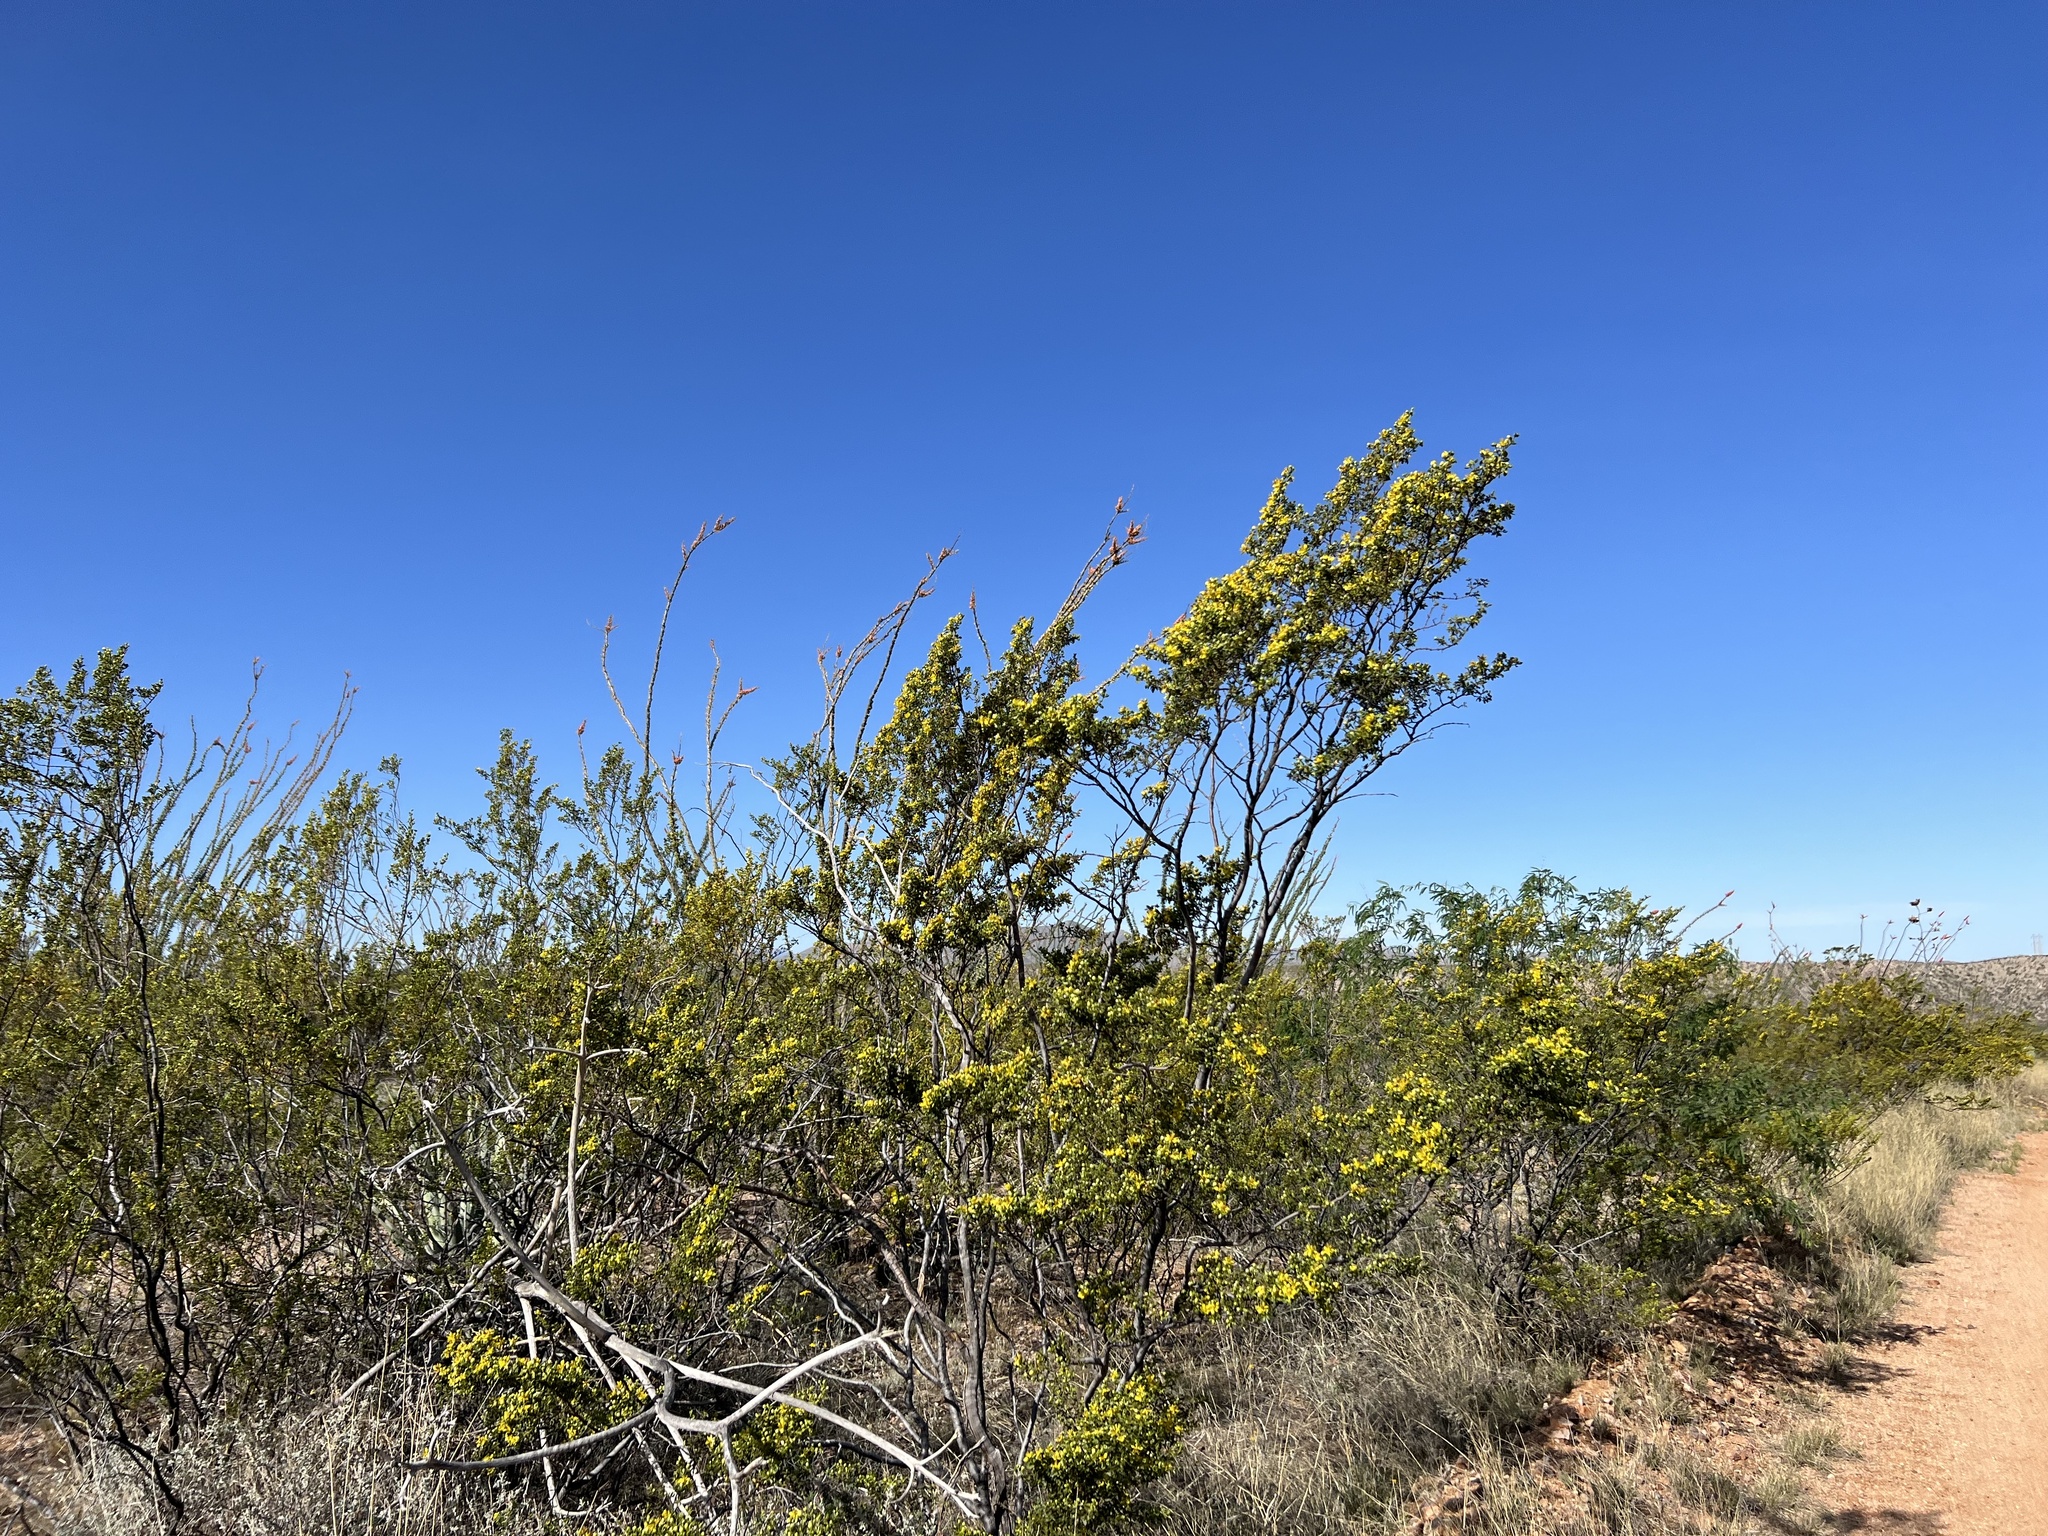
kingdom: Plantae
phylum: Tracheophyta
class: Magnoliopsida
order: Zygophyllales
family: Zygophyllaceae
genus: Larrea
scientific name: Larrea tridentata
